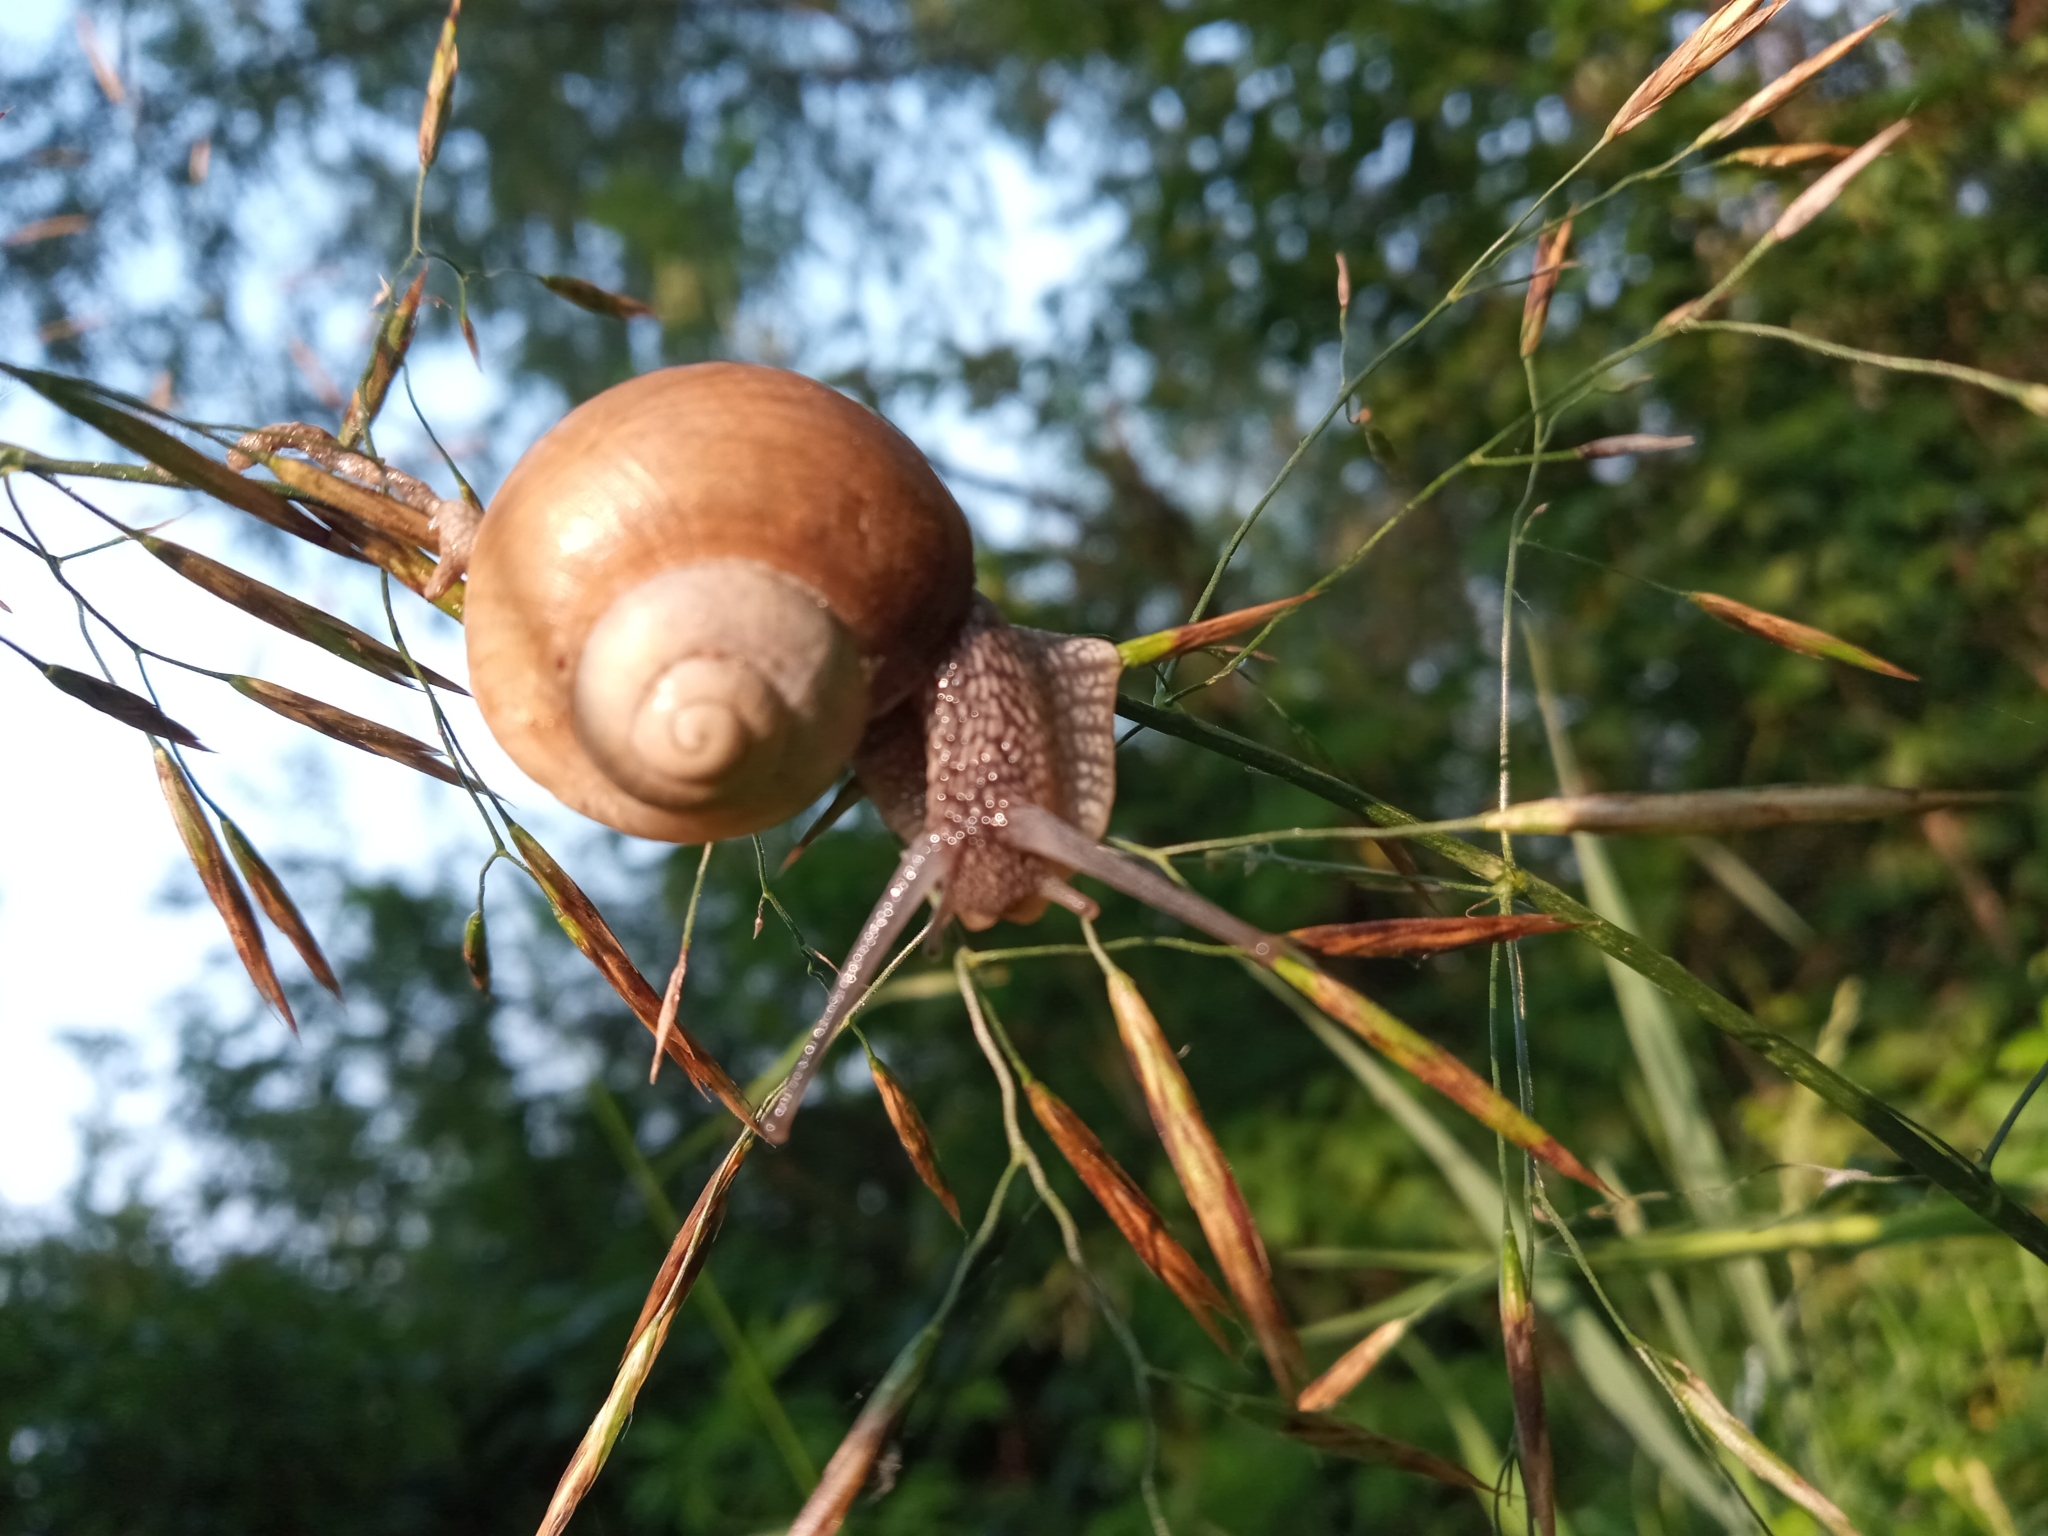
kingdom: Animalia
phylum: Mollusca
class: Gastropoda
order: Stylommatophora
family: Helicidae
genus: Helix
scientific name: Helix lutescens
